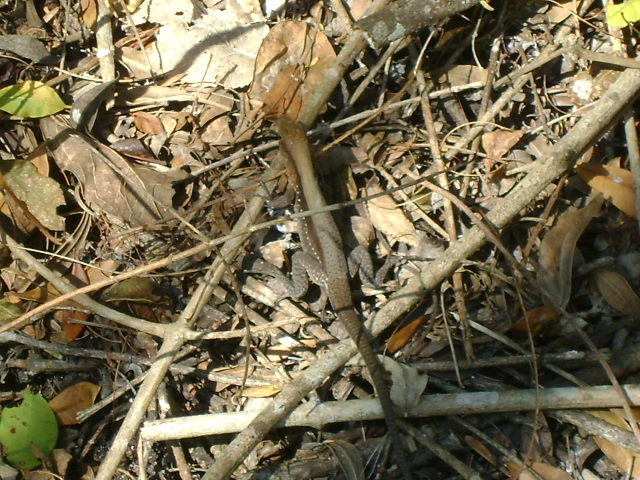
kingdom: Animalia
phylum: Chordata
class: Squamata
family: Teiidae
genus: Holcosus
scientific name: Holcosus undulatus
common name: Rainbow ameiva
